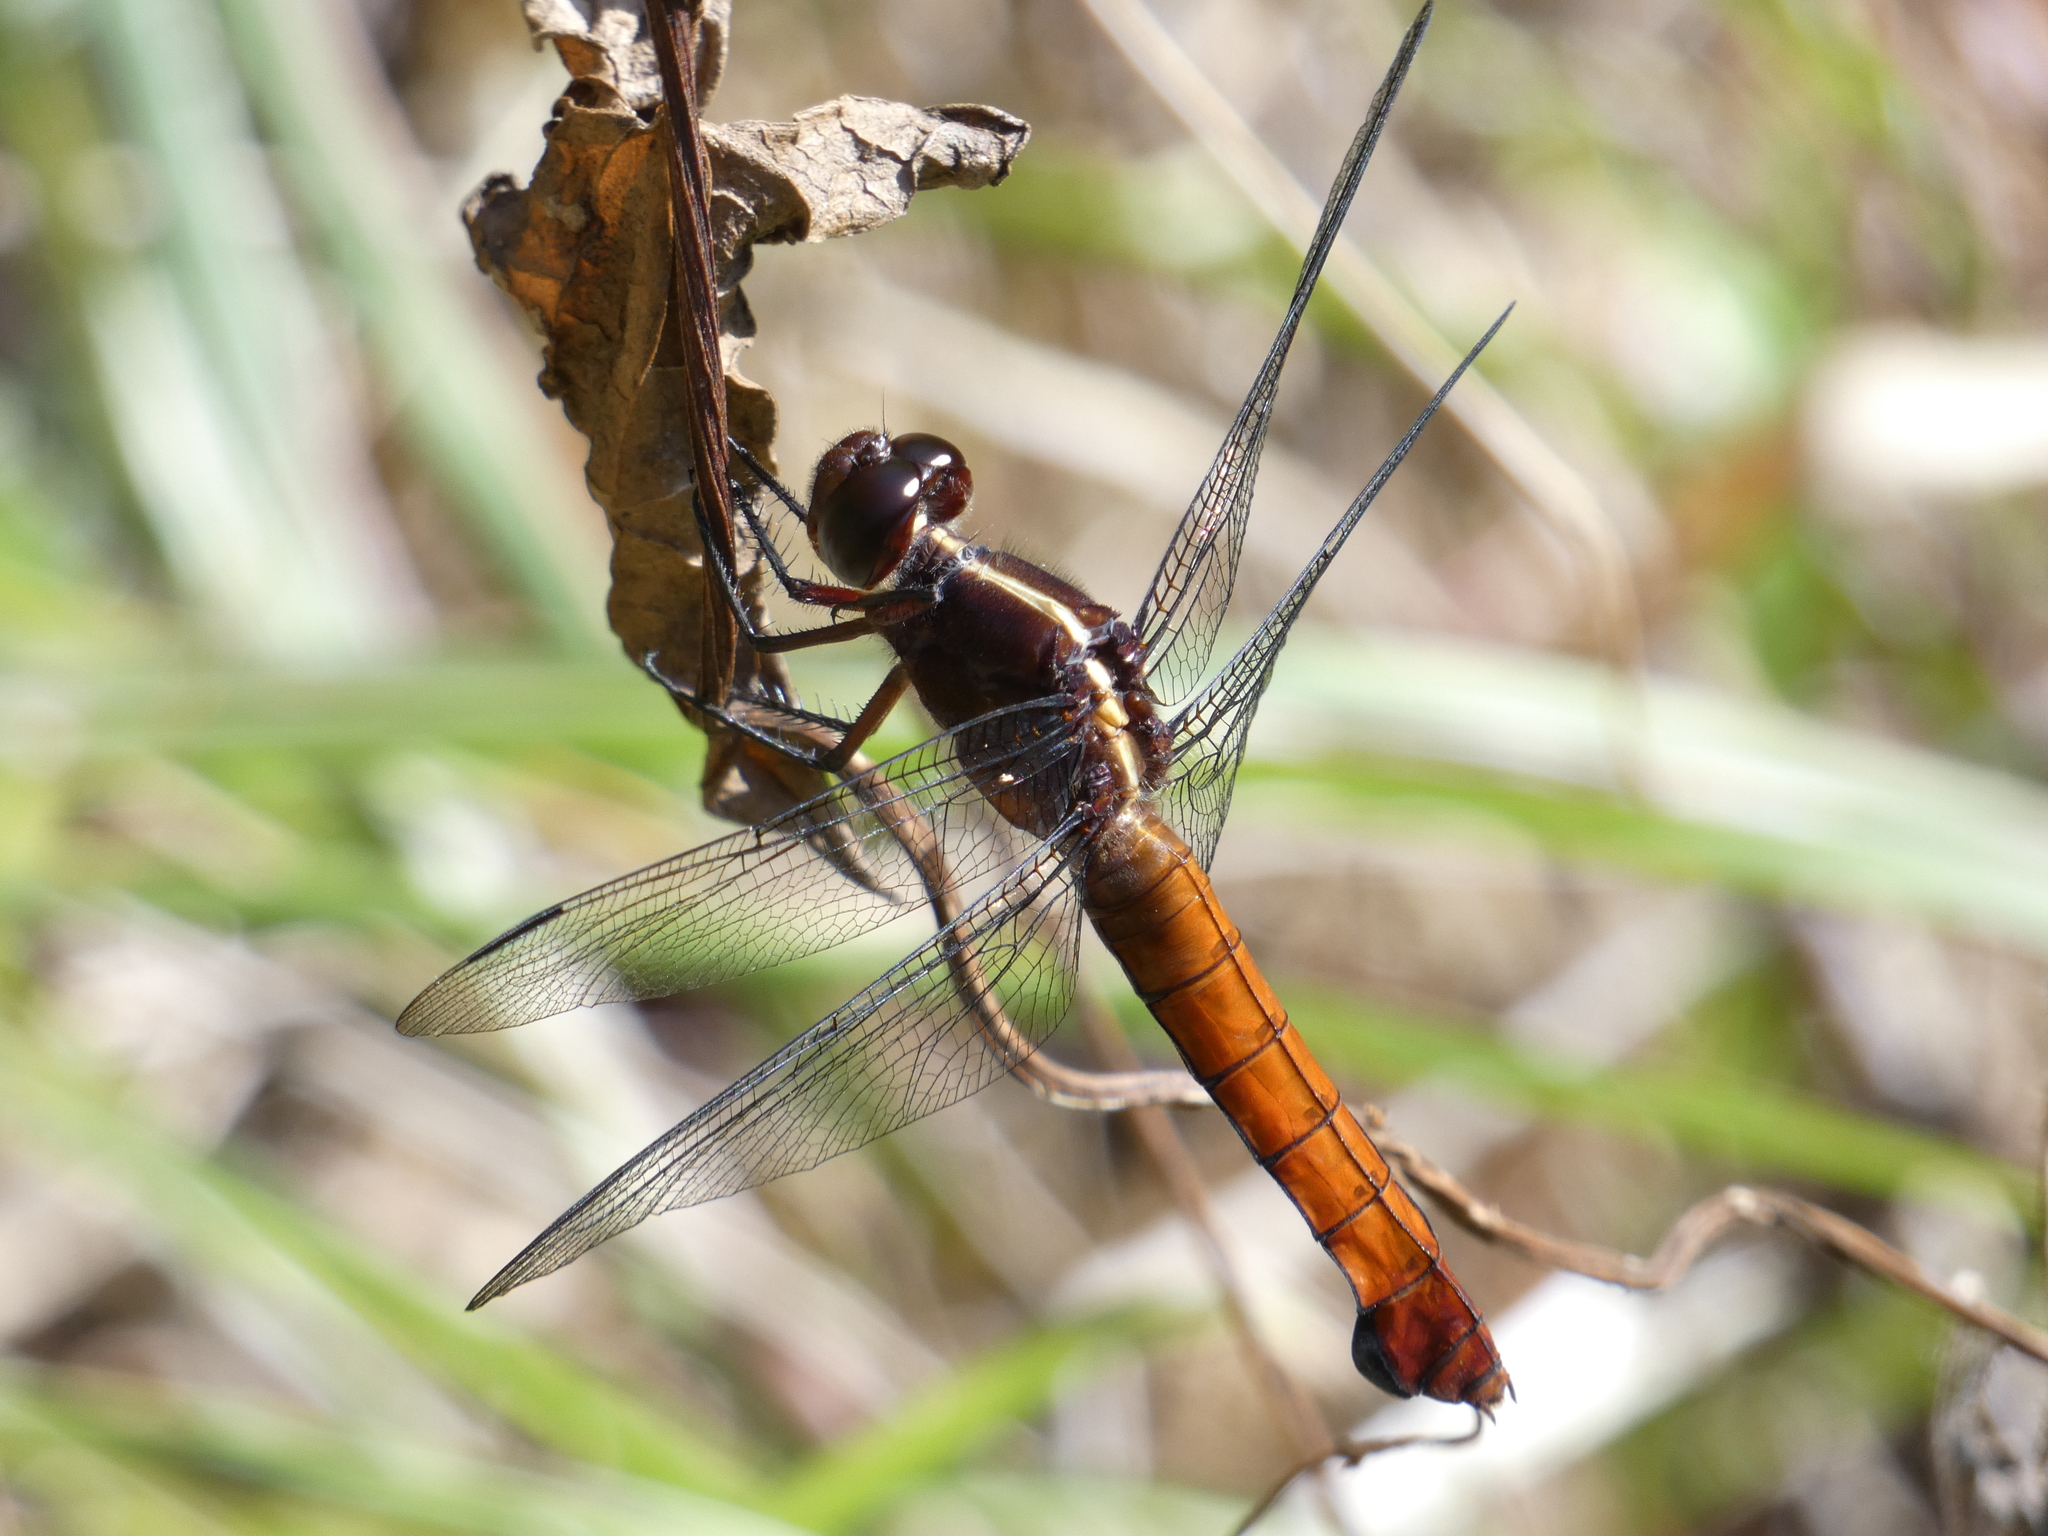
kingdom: Animalia
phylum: Arthropoda
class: Insecta
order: Odonata
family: Libellulidae
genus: Libellula
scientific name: Libellula herculea
